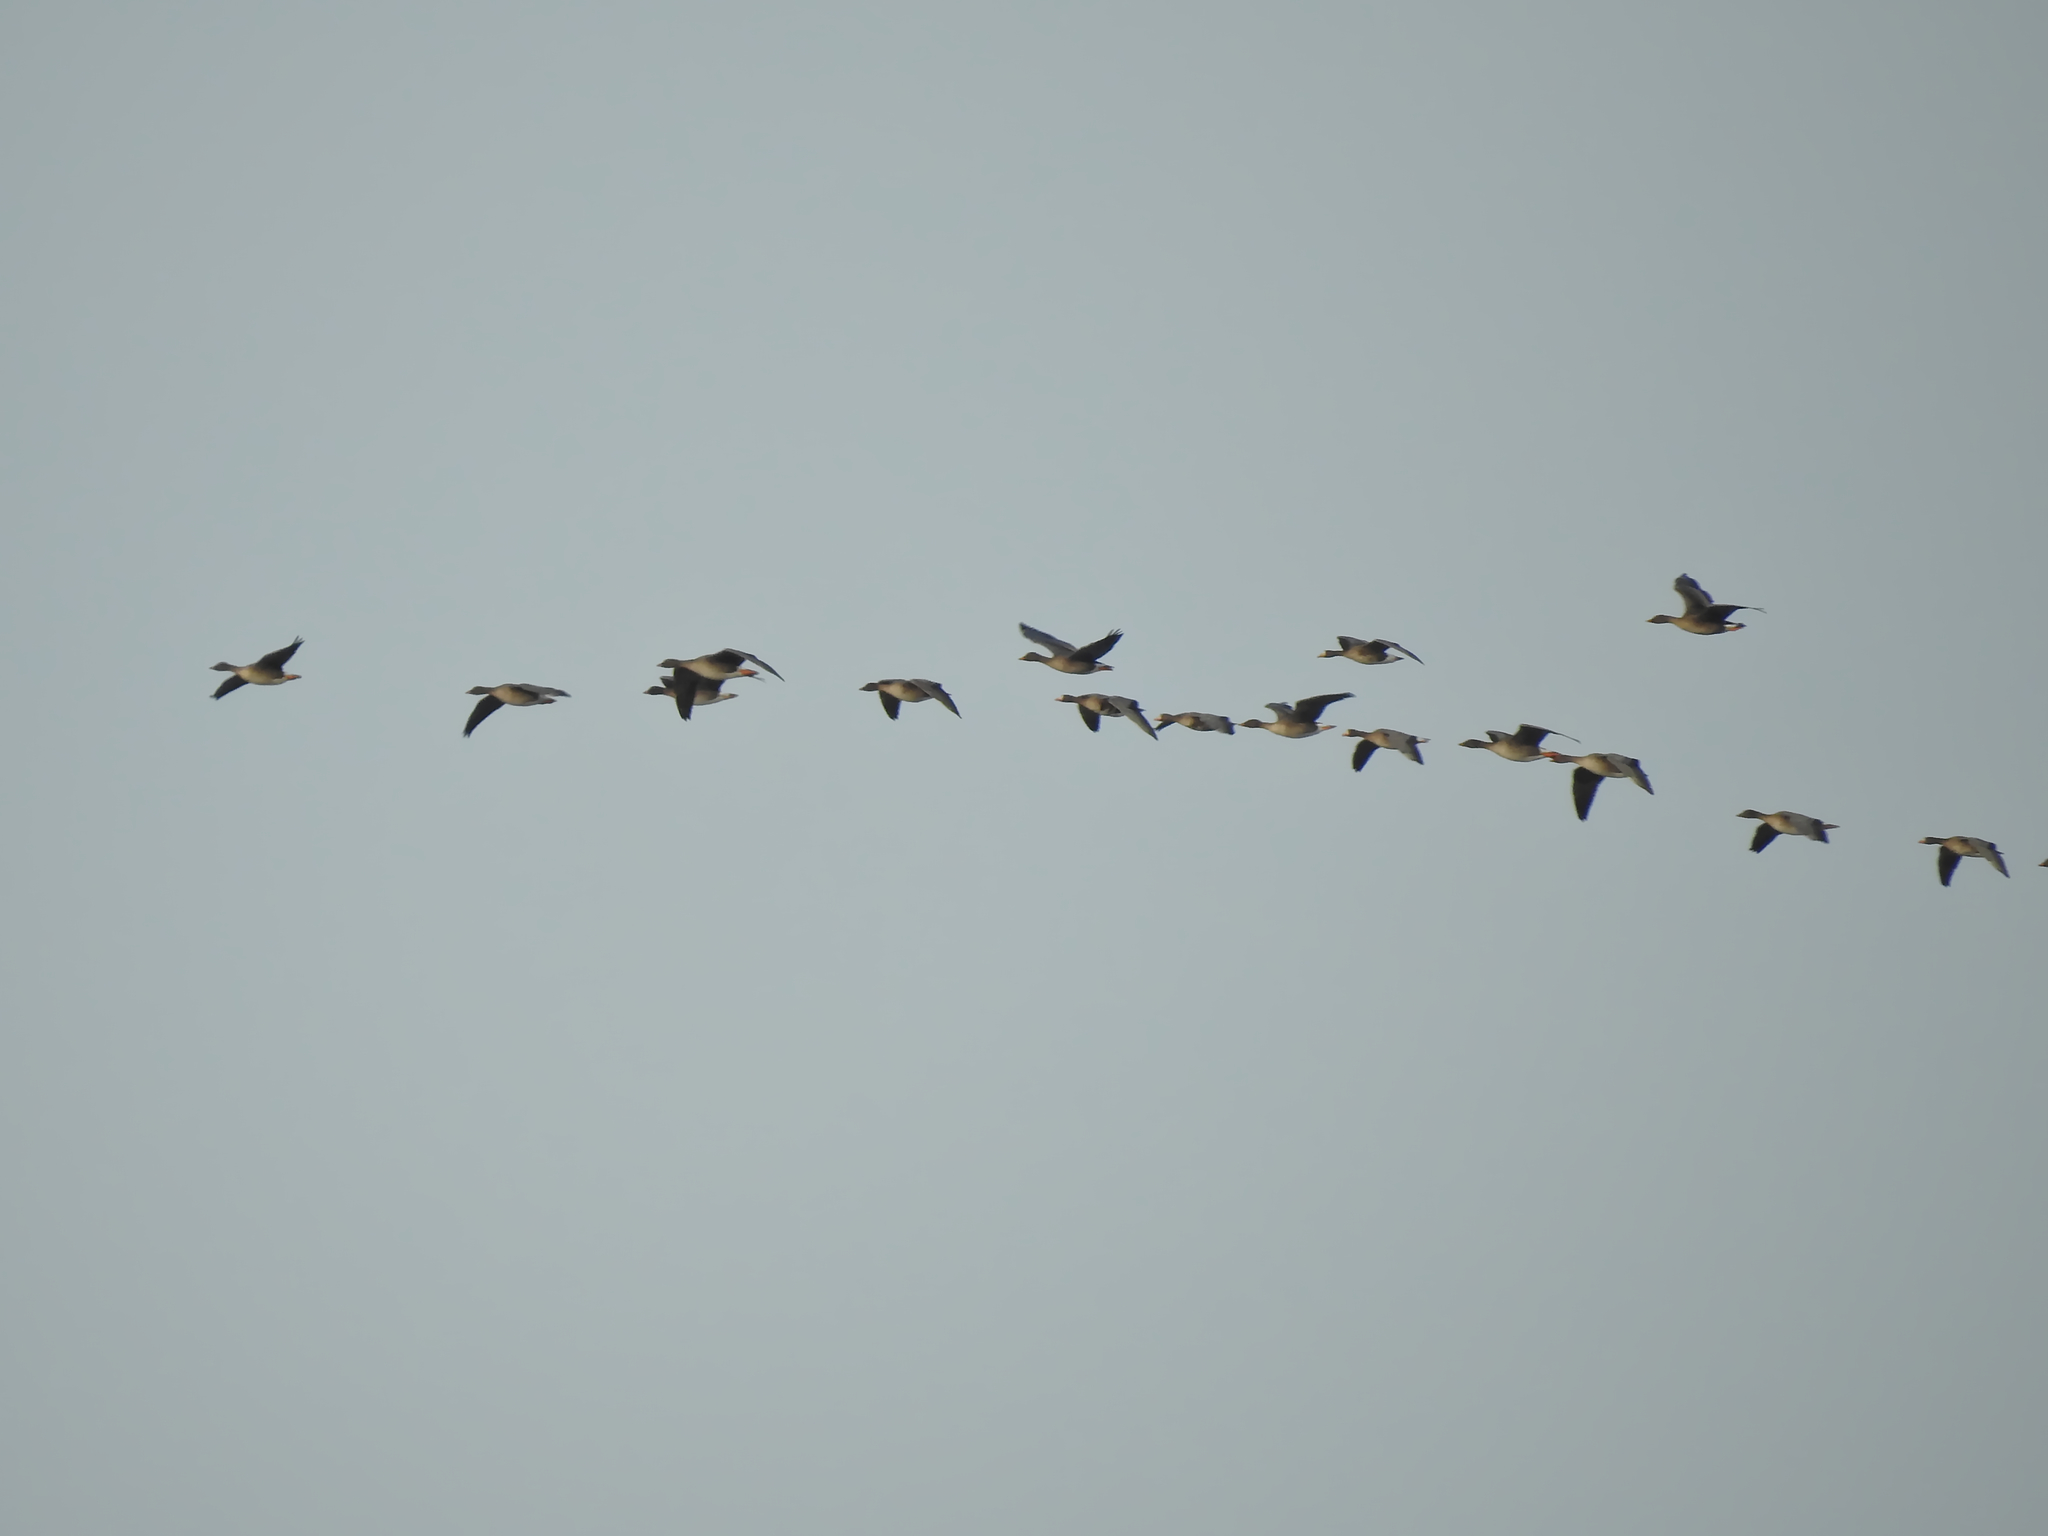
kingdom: Animalia
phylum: Chordata
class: Aves
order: Anseriformes
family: Anatidae
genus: Anser
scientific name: Anser serrirostris
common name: Tundra bean goose
